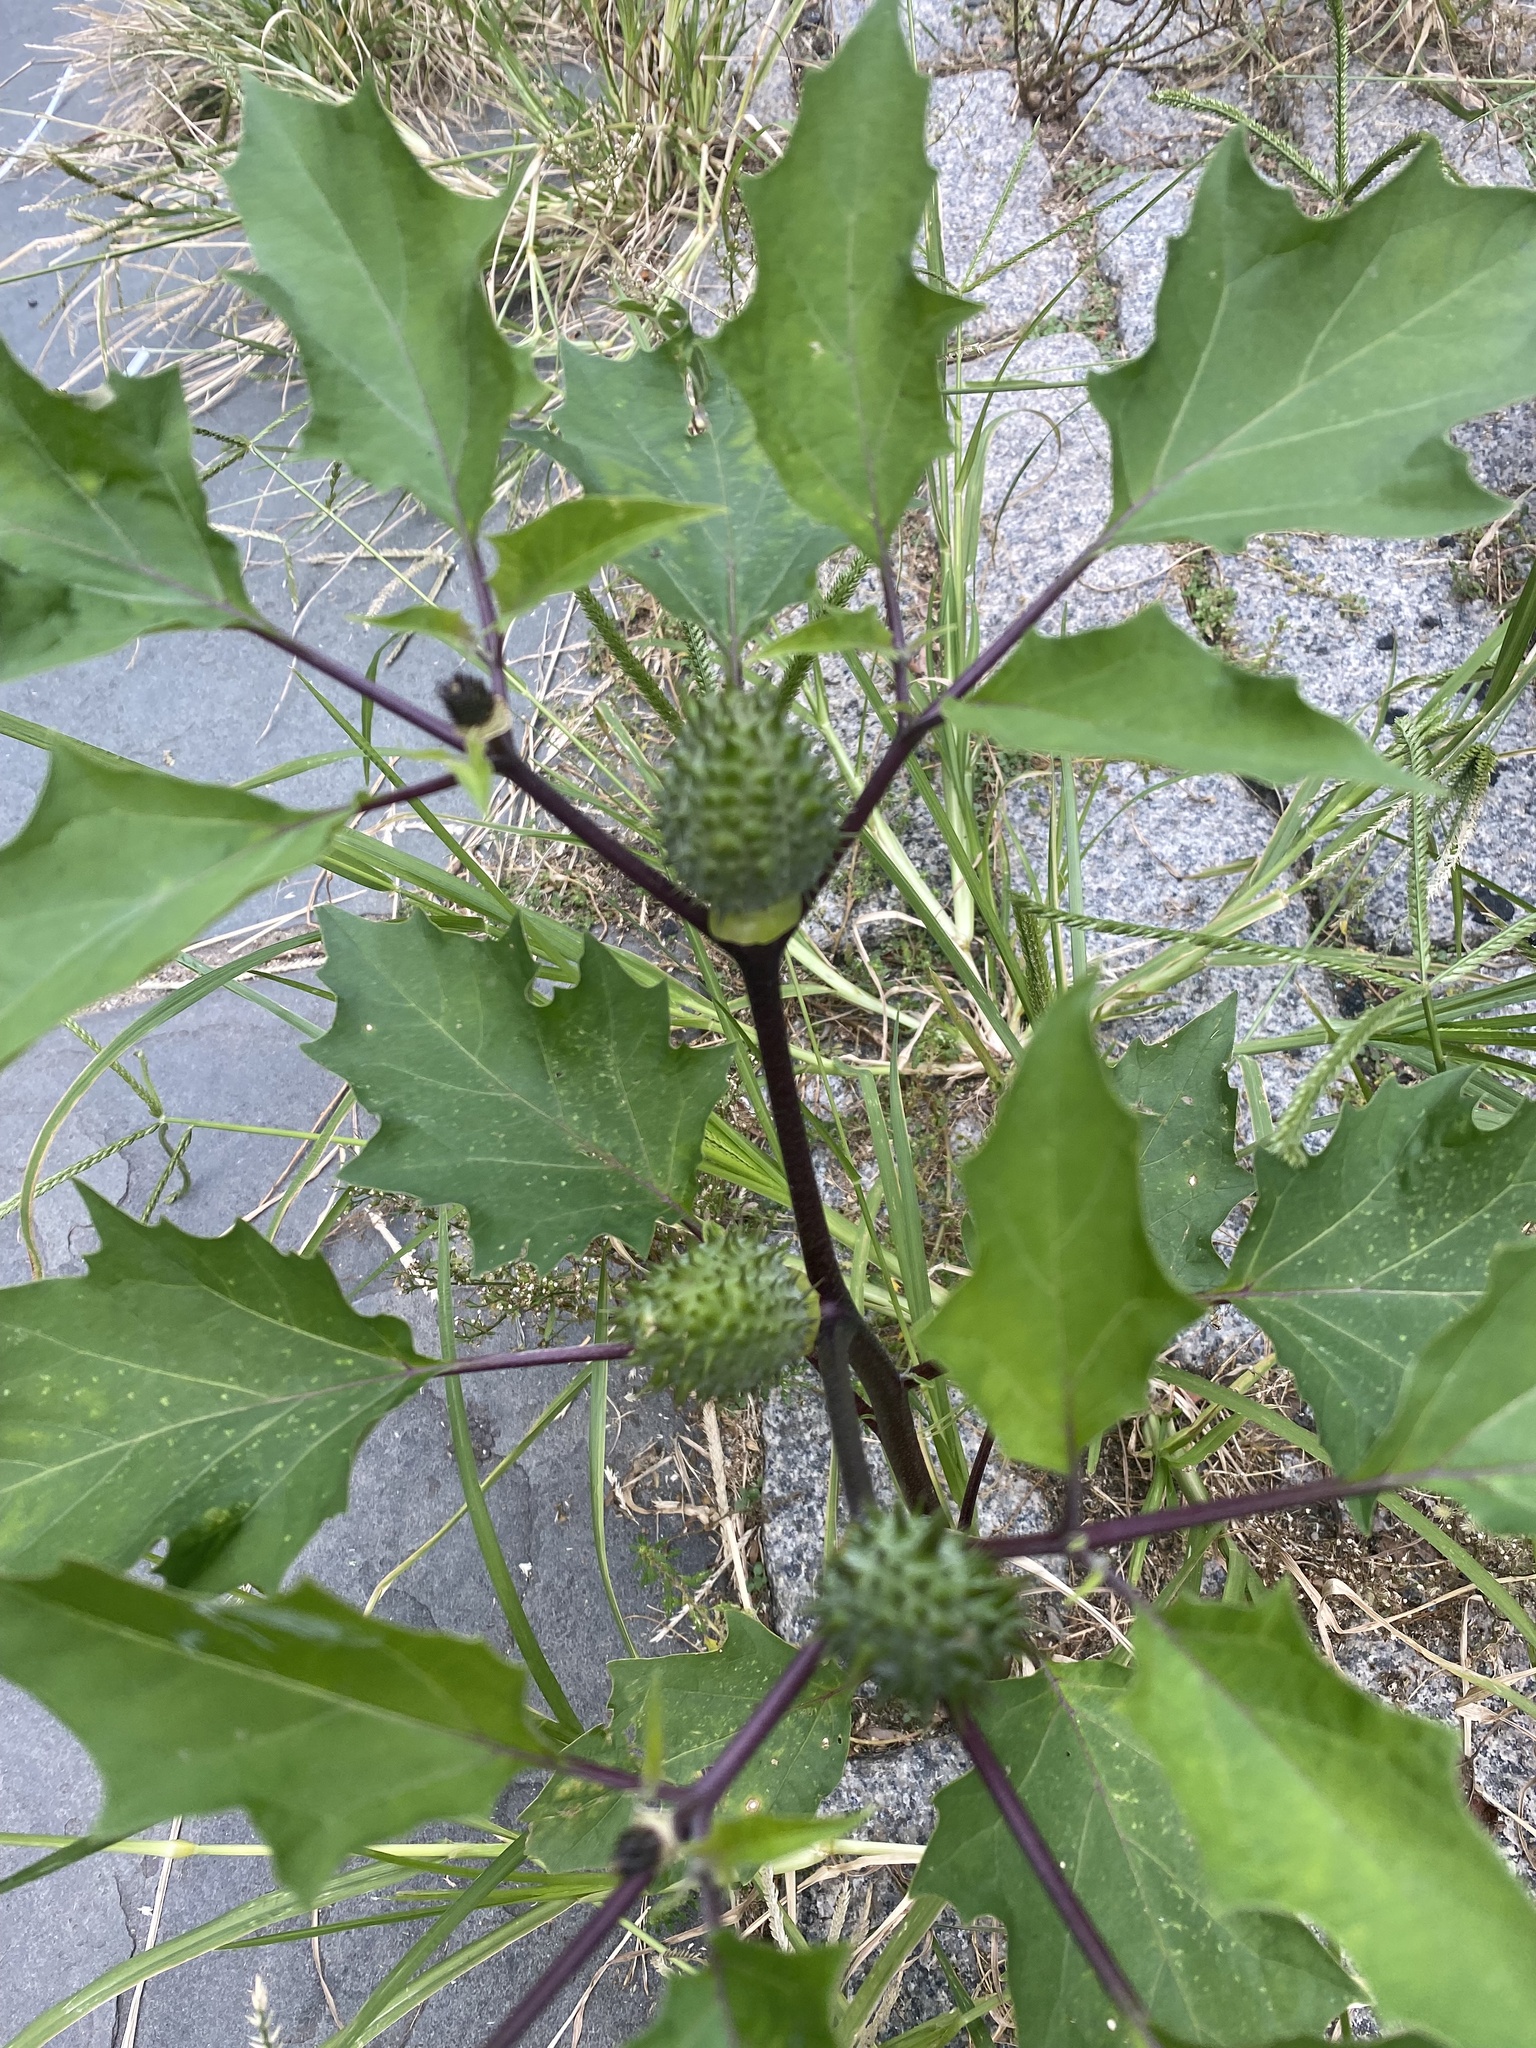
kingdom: Plantae
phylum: Tracheophyta
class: Magnoliopsida
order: Solanales
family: Solanaceae
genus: Datura
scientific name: Datura stramonium
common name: Thorn-apple
